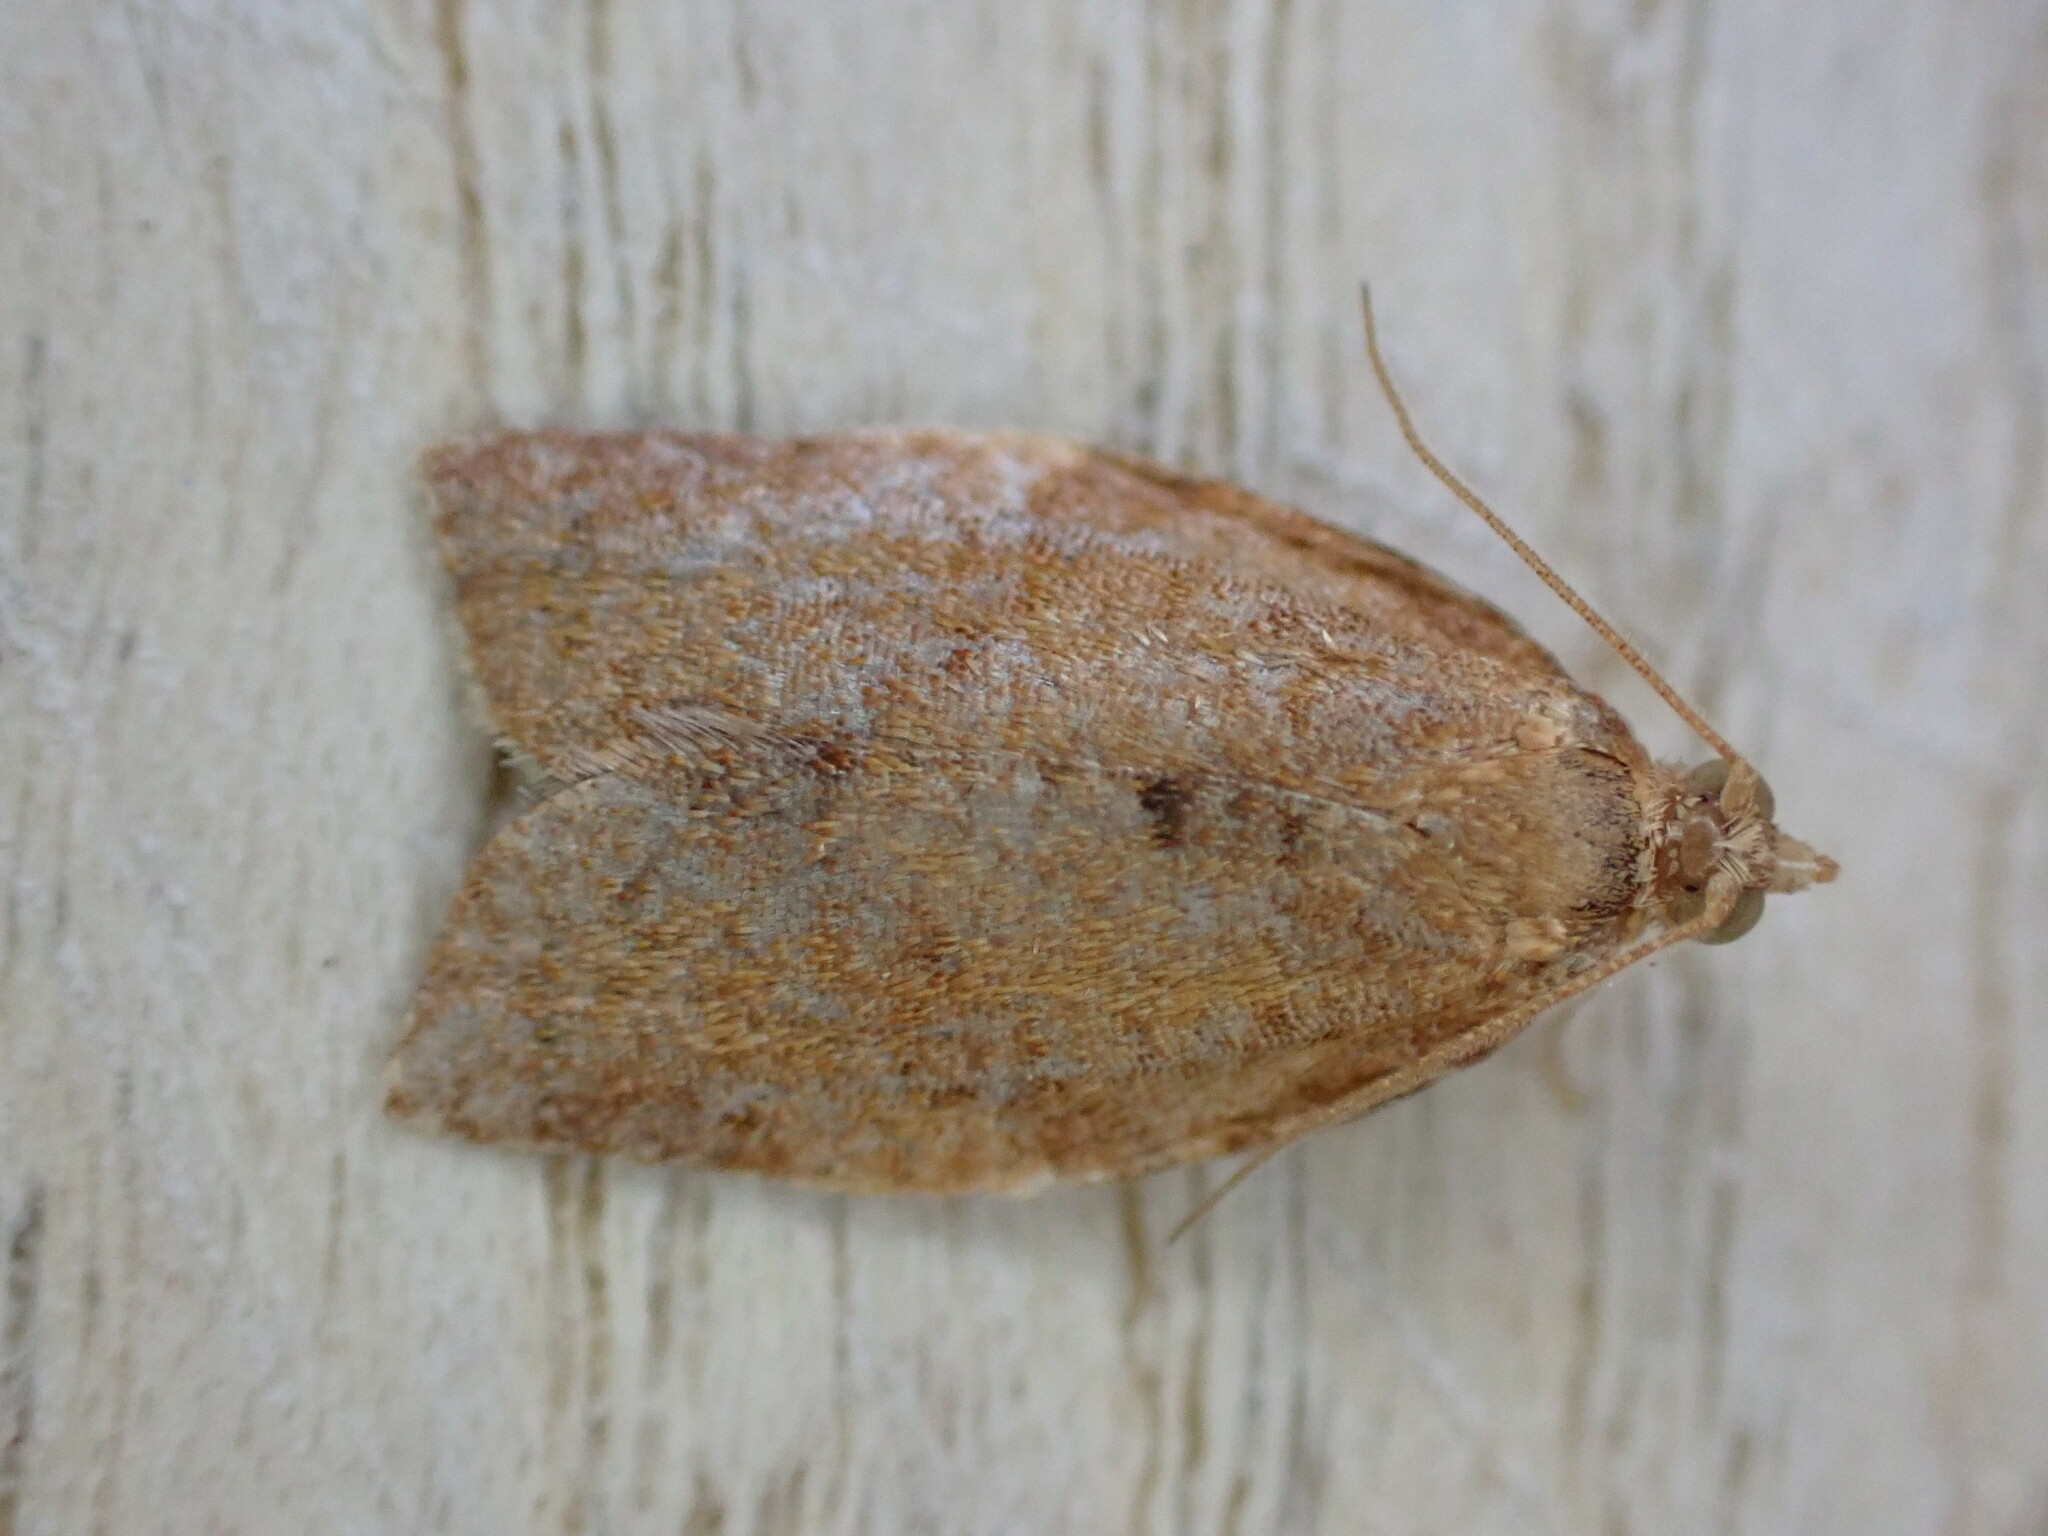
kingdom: Animalia
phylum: Arthropoda
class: Insecta
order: Lepidoptera
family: Tortricidae
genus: Clepsis
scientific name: Clepsis consimilana
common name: Privet tortrix
